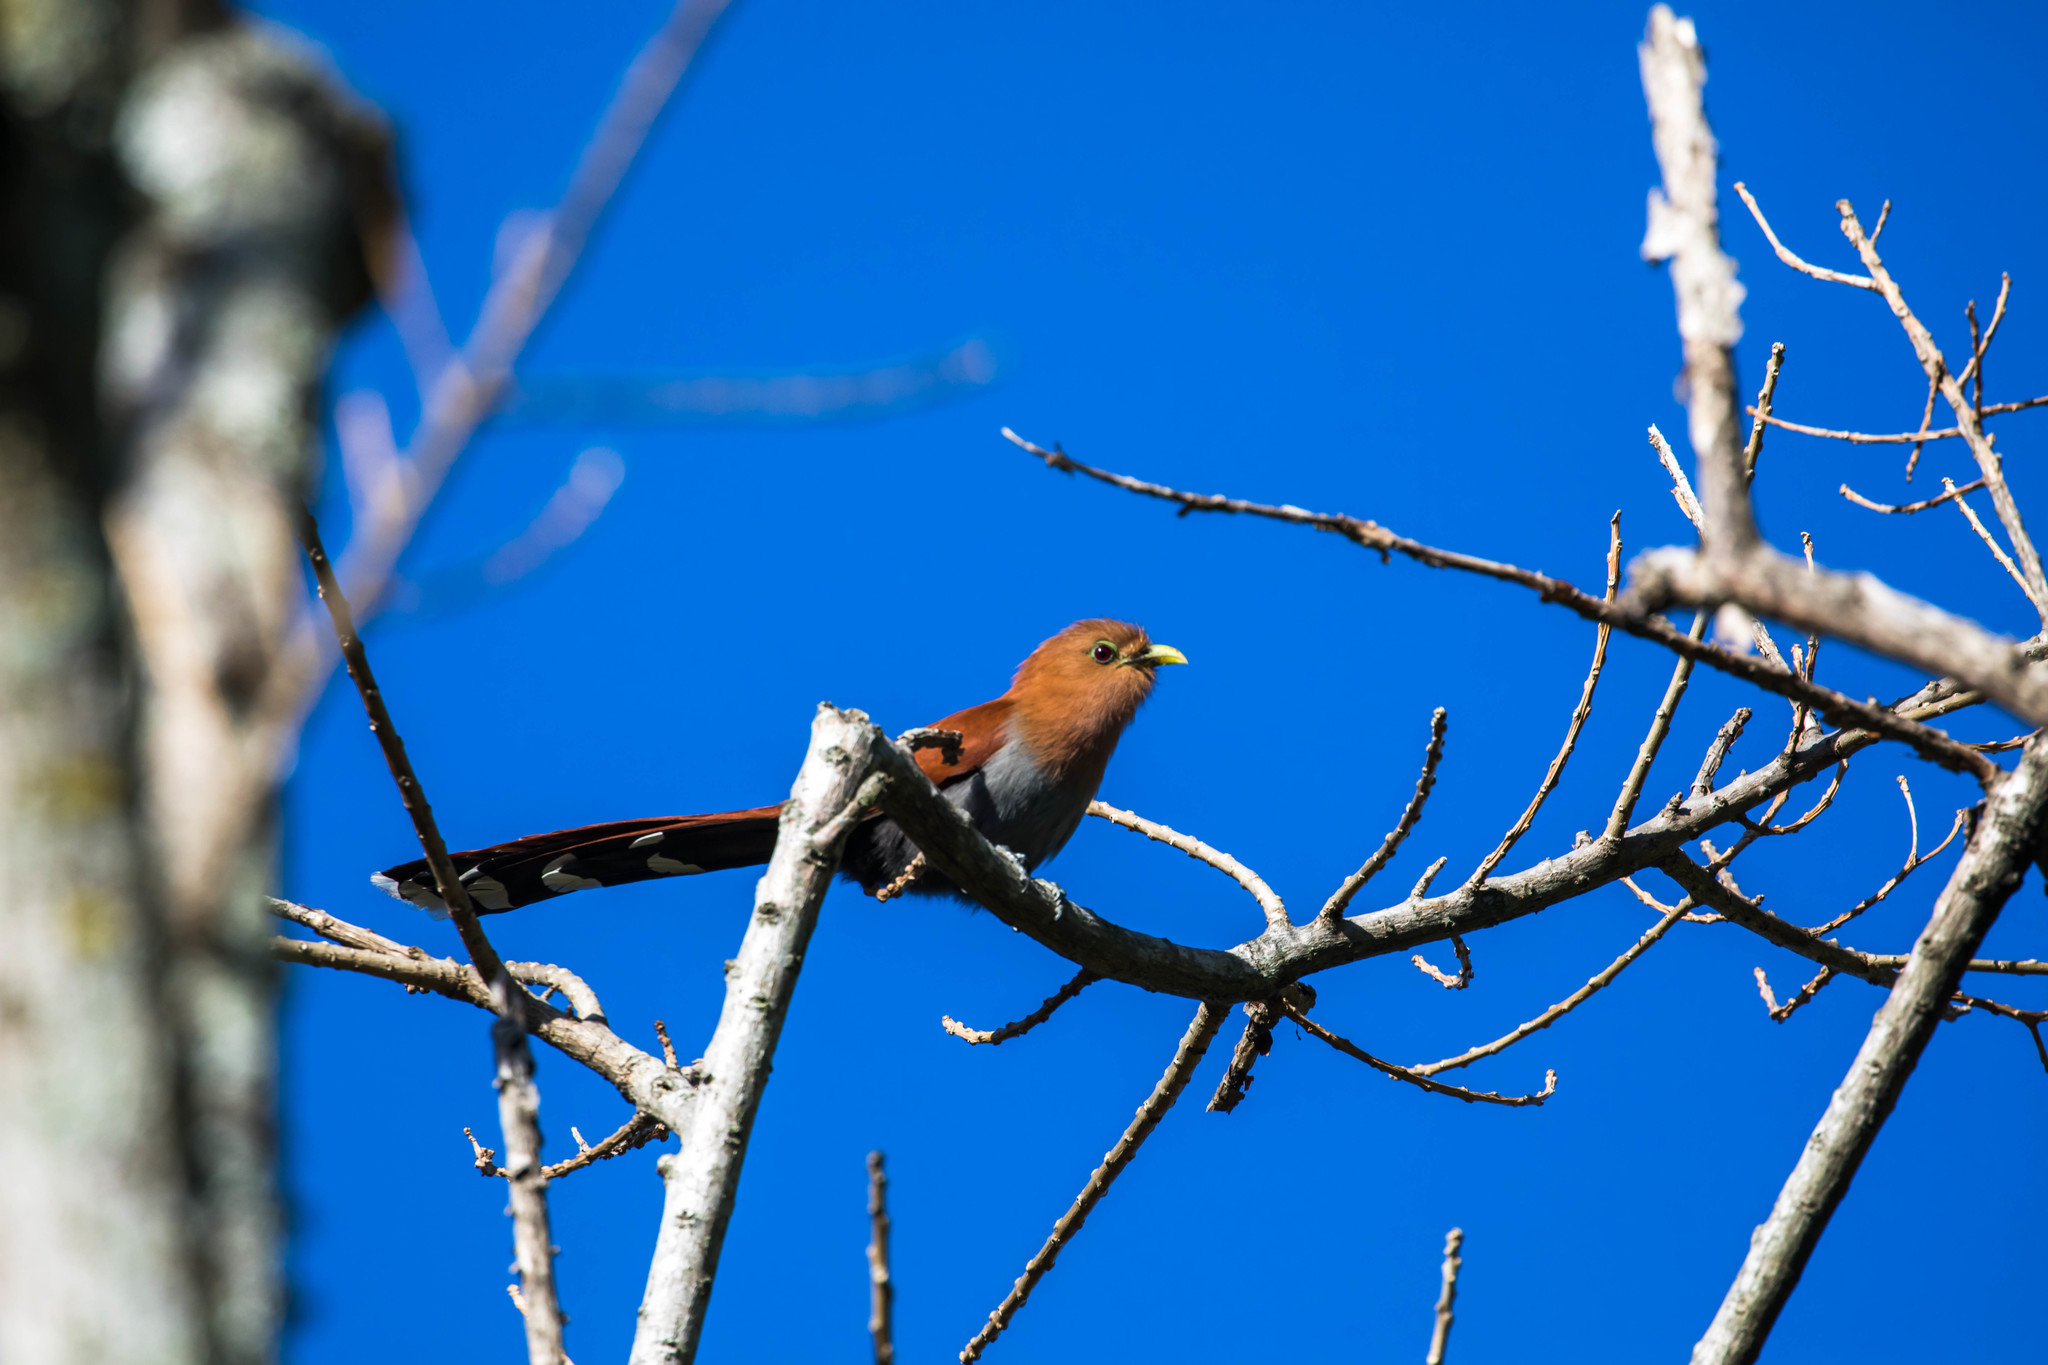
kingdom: Animalia
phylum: Chordata
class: Aves
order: Cuculiformes
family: Cuculidae
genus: Piaya
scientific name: Piaya cayana
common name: Squirrel cuckoo
